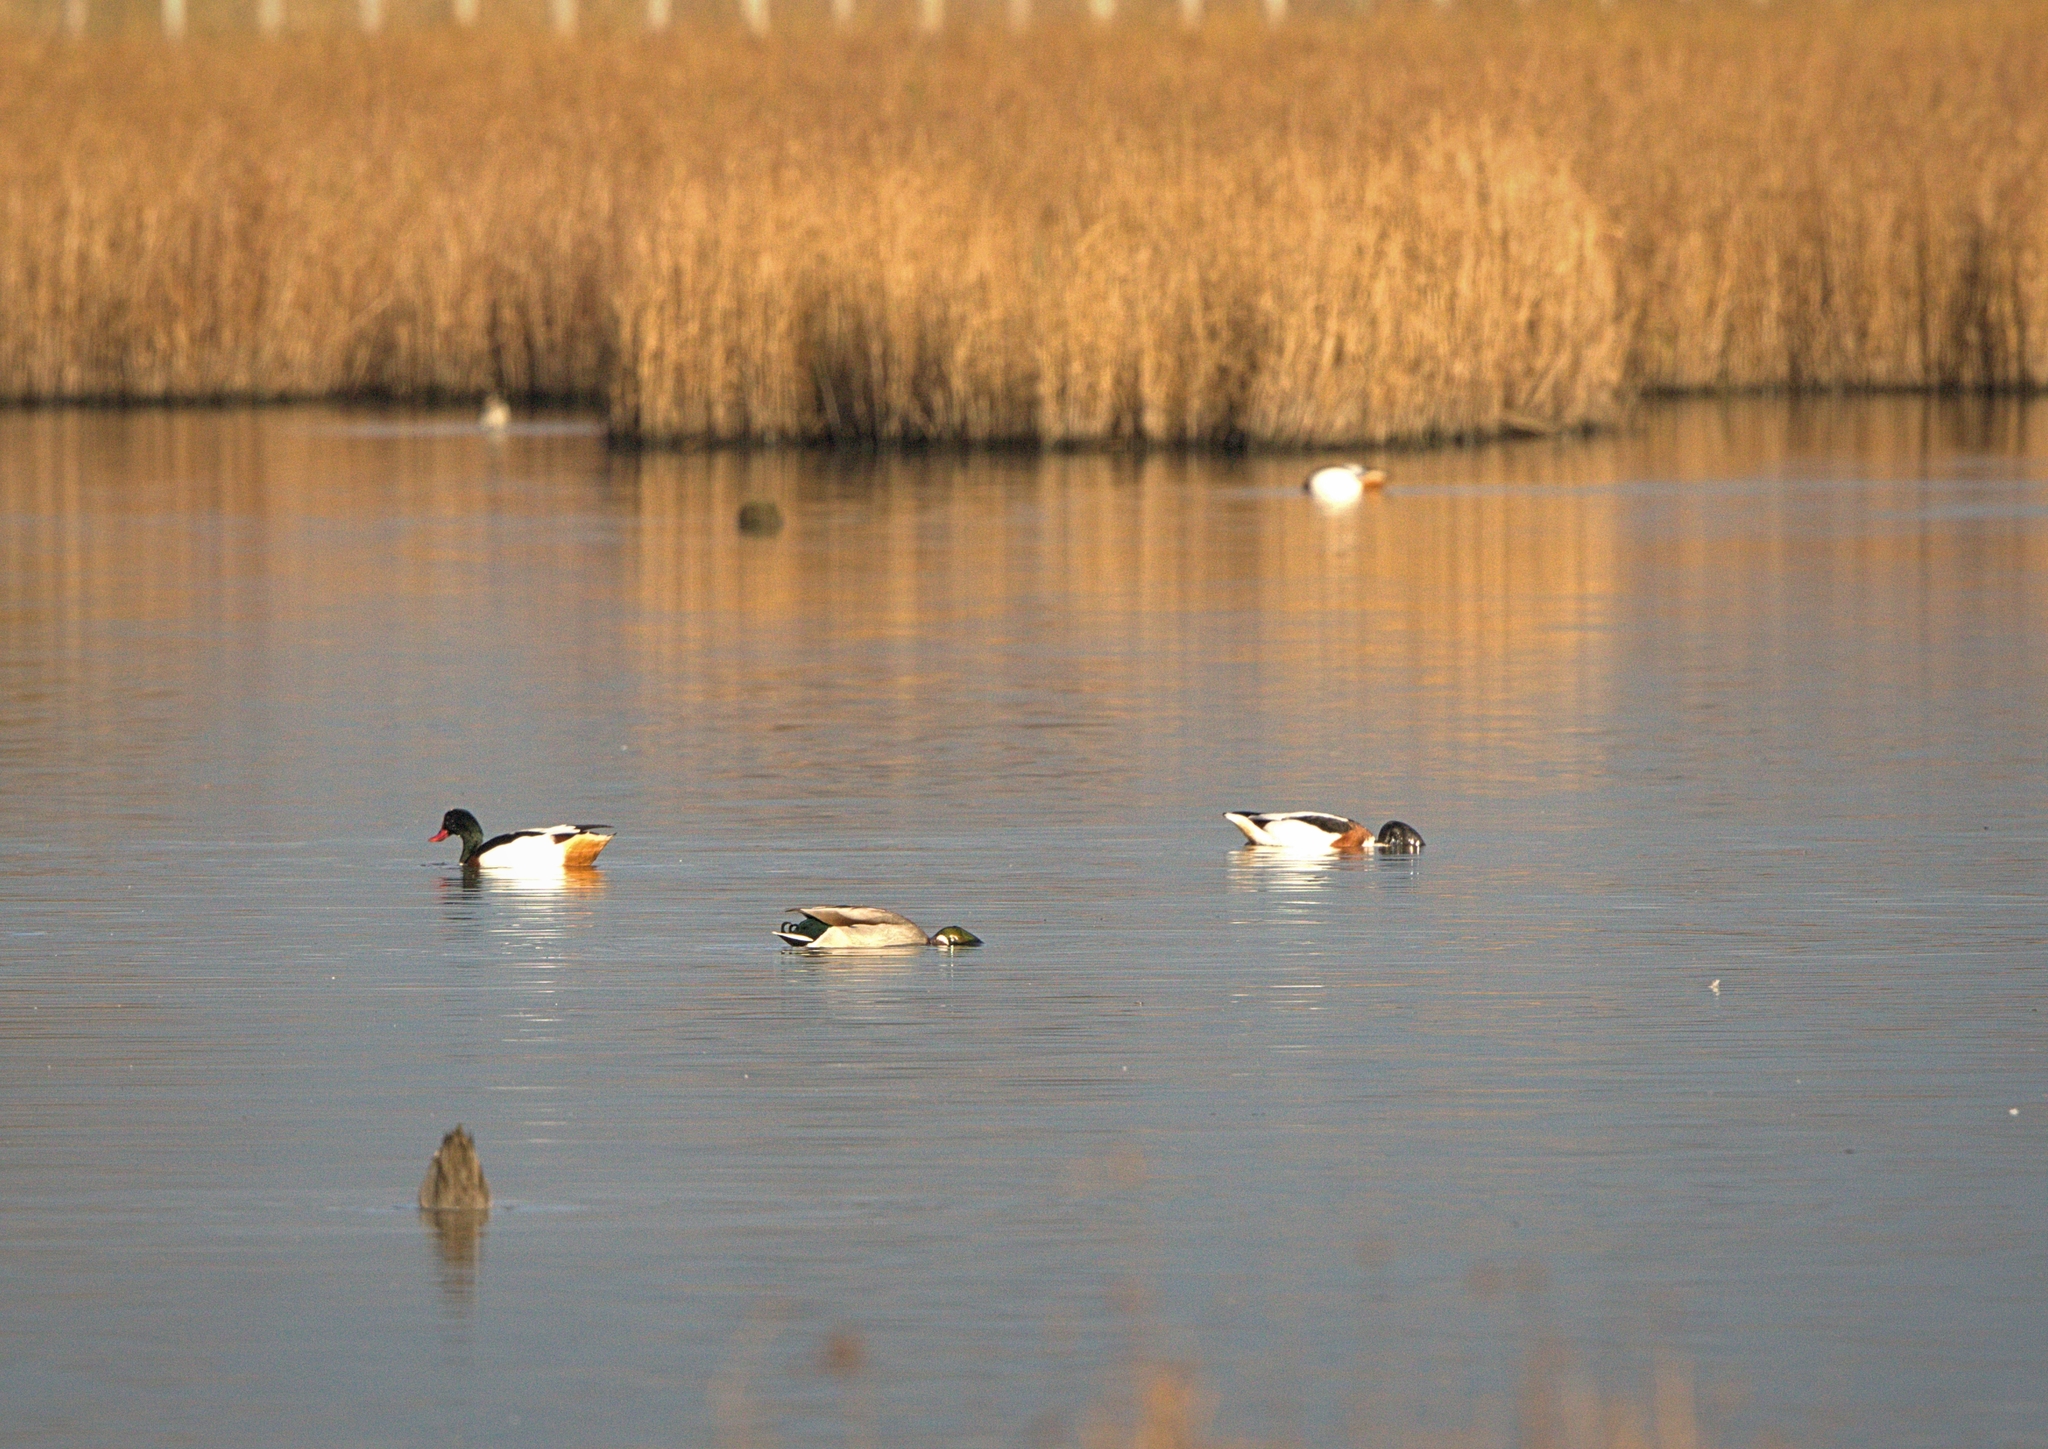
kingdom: Animalia
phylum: Chordata
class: Aves
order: Anseriformes
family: Anatidae
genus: Tadorna
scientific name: Tadorna tadorna
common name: Common shelduck
